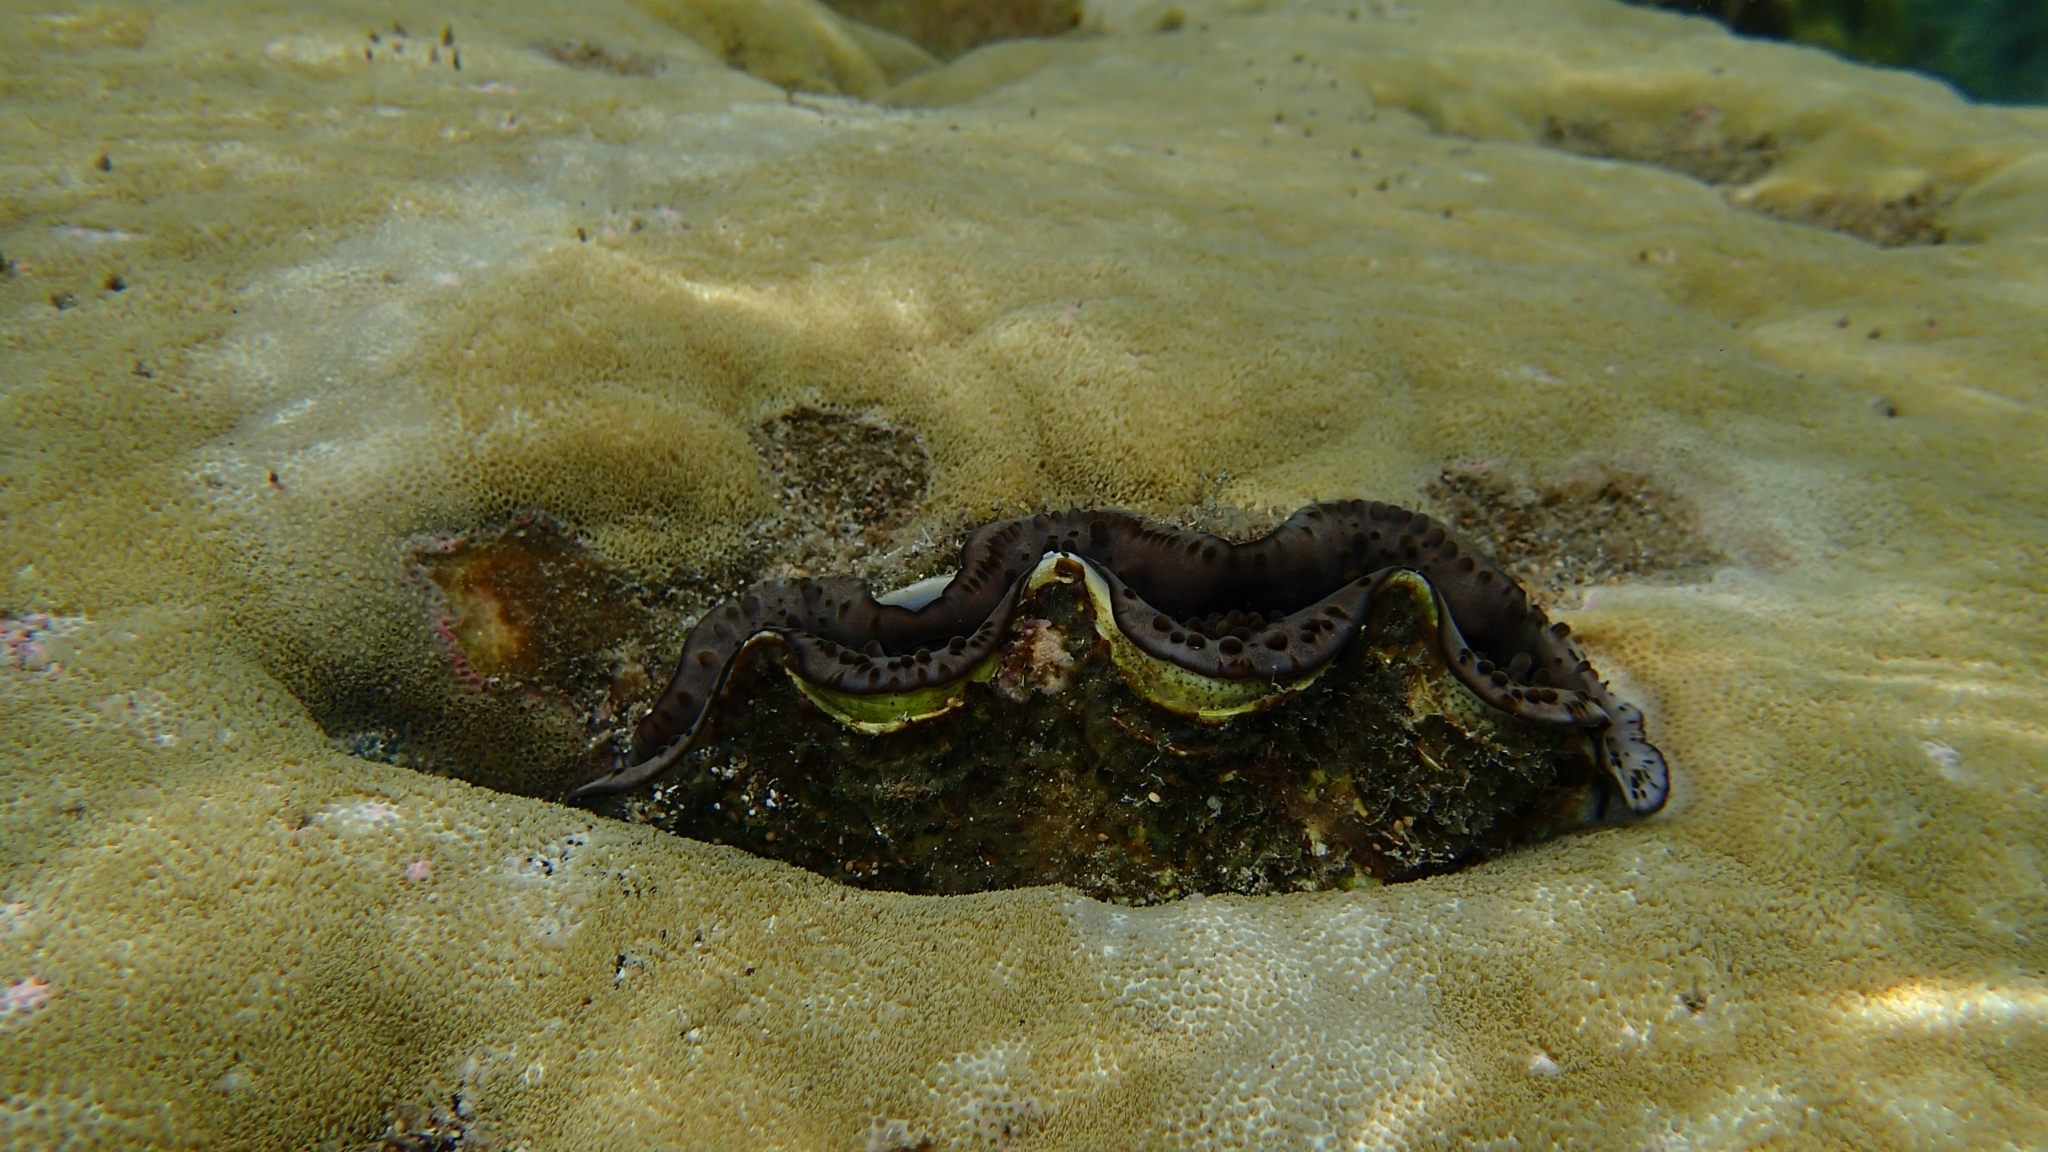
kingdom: Animalia
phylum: Mollusca
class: Bivalvia
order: Cardiida
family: Cardiidae
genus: Tridacna
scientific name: Tridacna maxima
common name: Small giant clam
